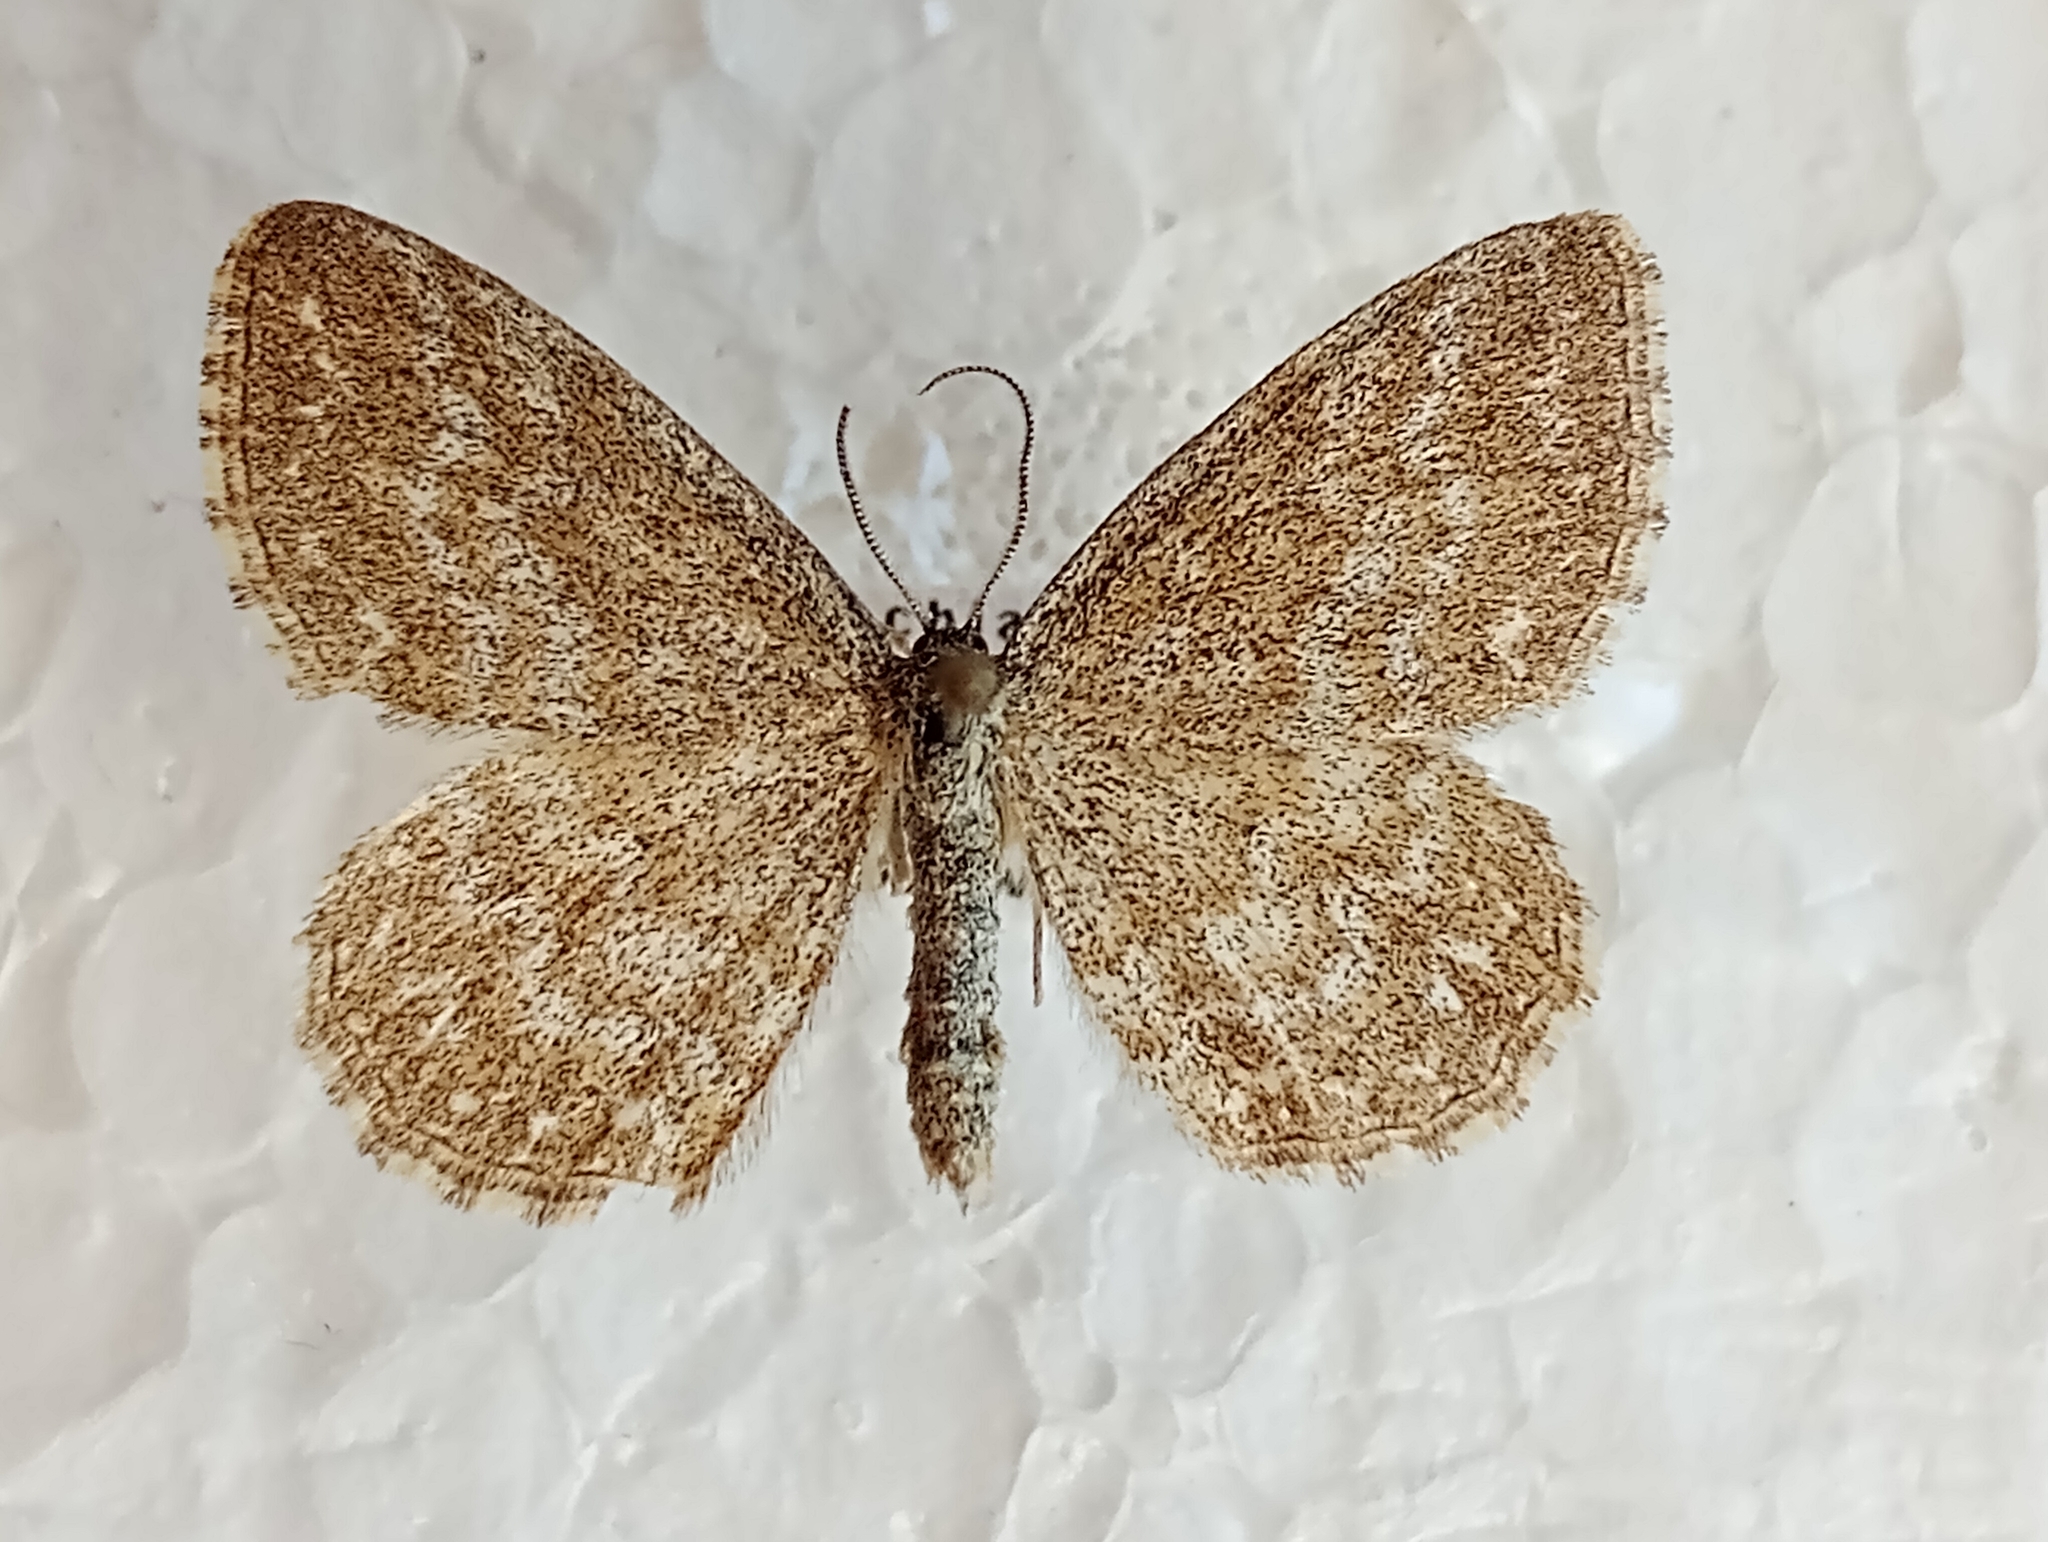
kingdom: Animalia
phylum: Arthropoda
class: Insecta
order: Lepidoptera
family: Geometridae
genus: Scopula
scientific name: Scopula immorata
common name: Lewes wave
